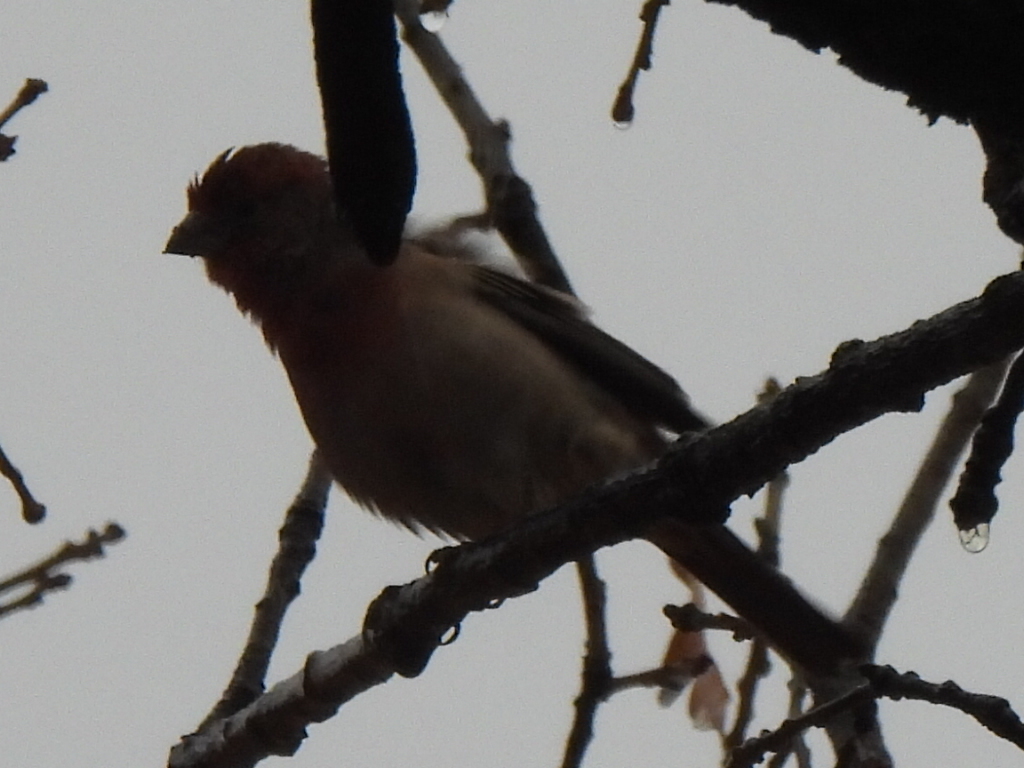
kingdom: Animalia
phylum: Chordata
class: Aves
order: Passeriformes
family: Fringillidae
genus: Haemorhous
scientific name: Haemorhous mexicanus
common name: House finch
